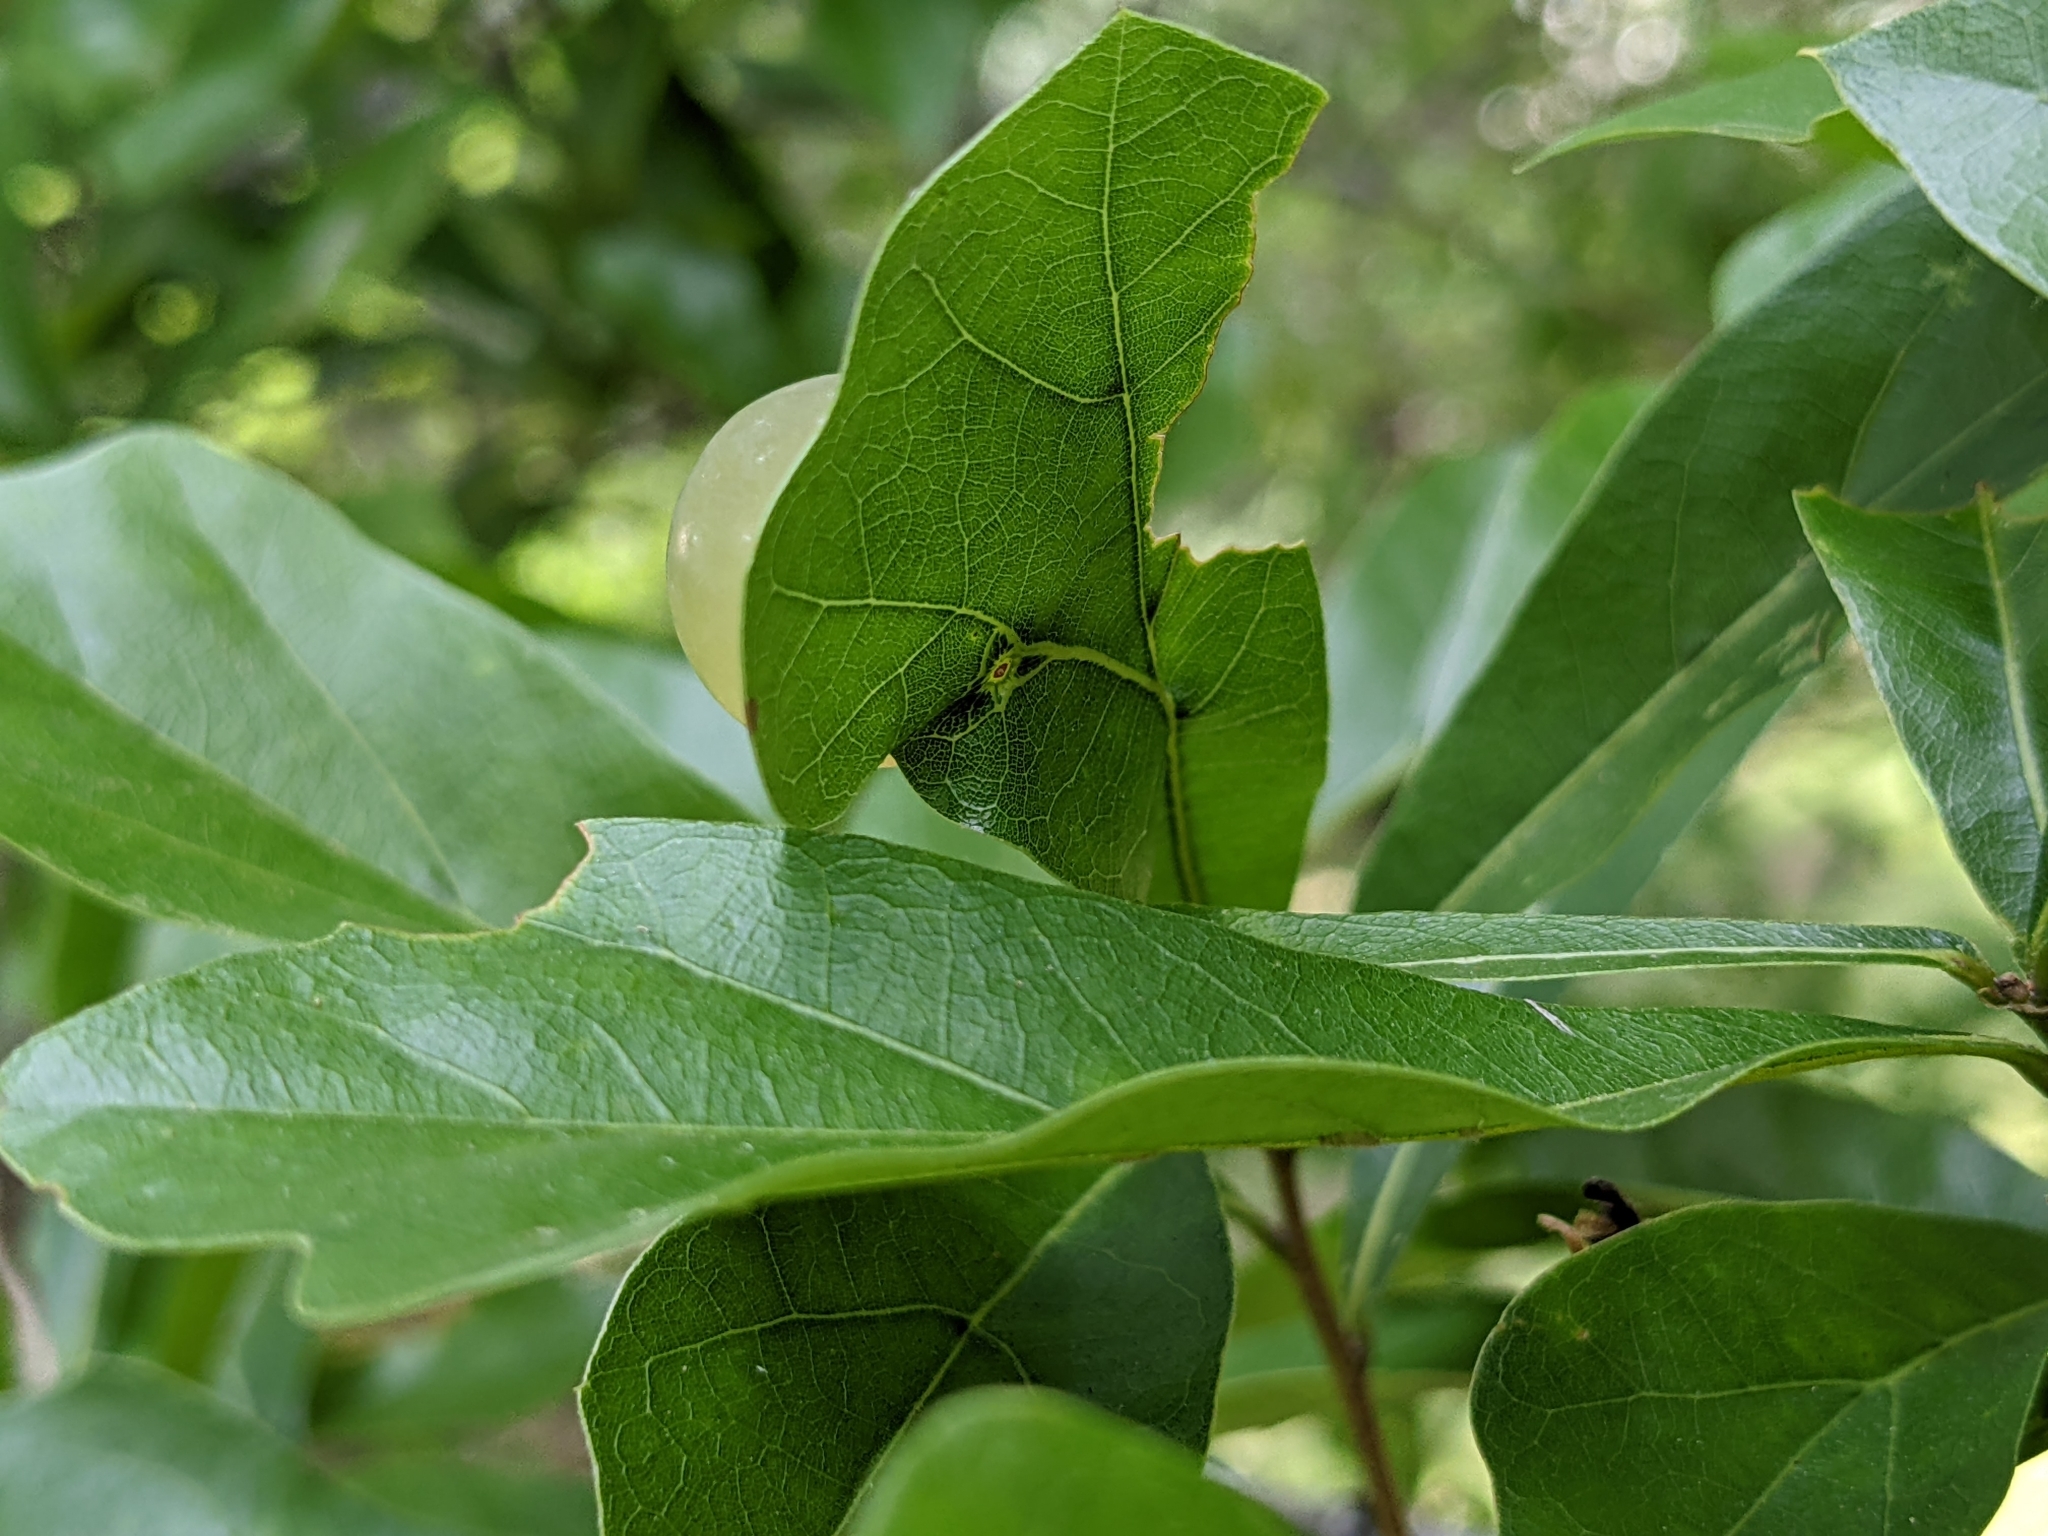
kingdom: Animalia
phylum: Arthropoda
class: Insecta
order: Hymenoptera
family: Cynipidae
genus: Amphibolips
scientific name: Amphibolips
